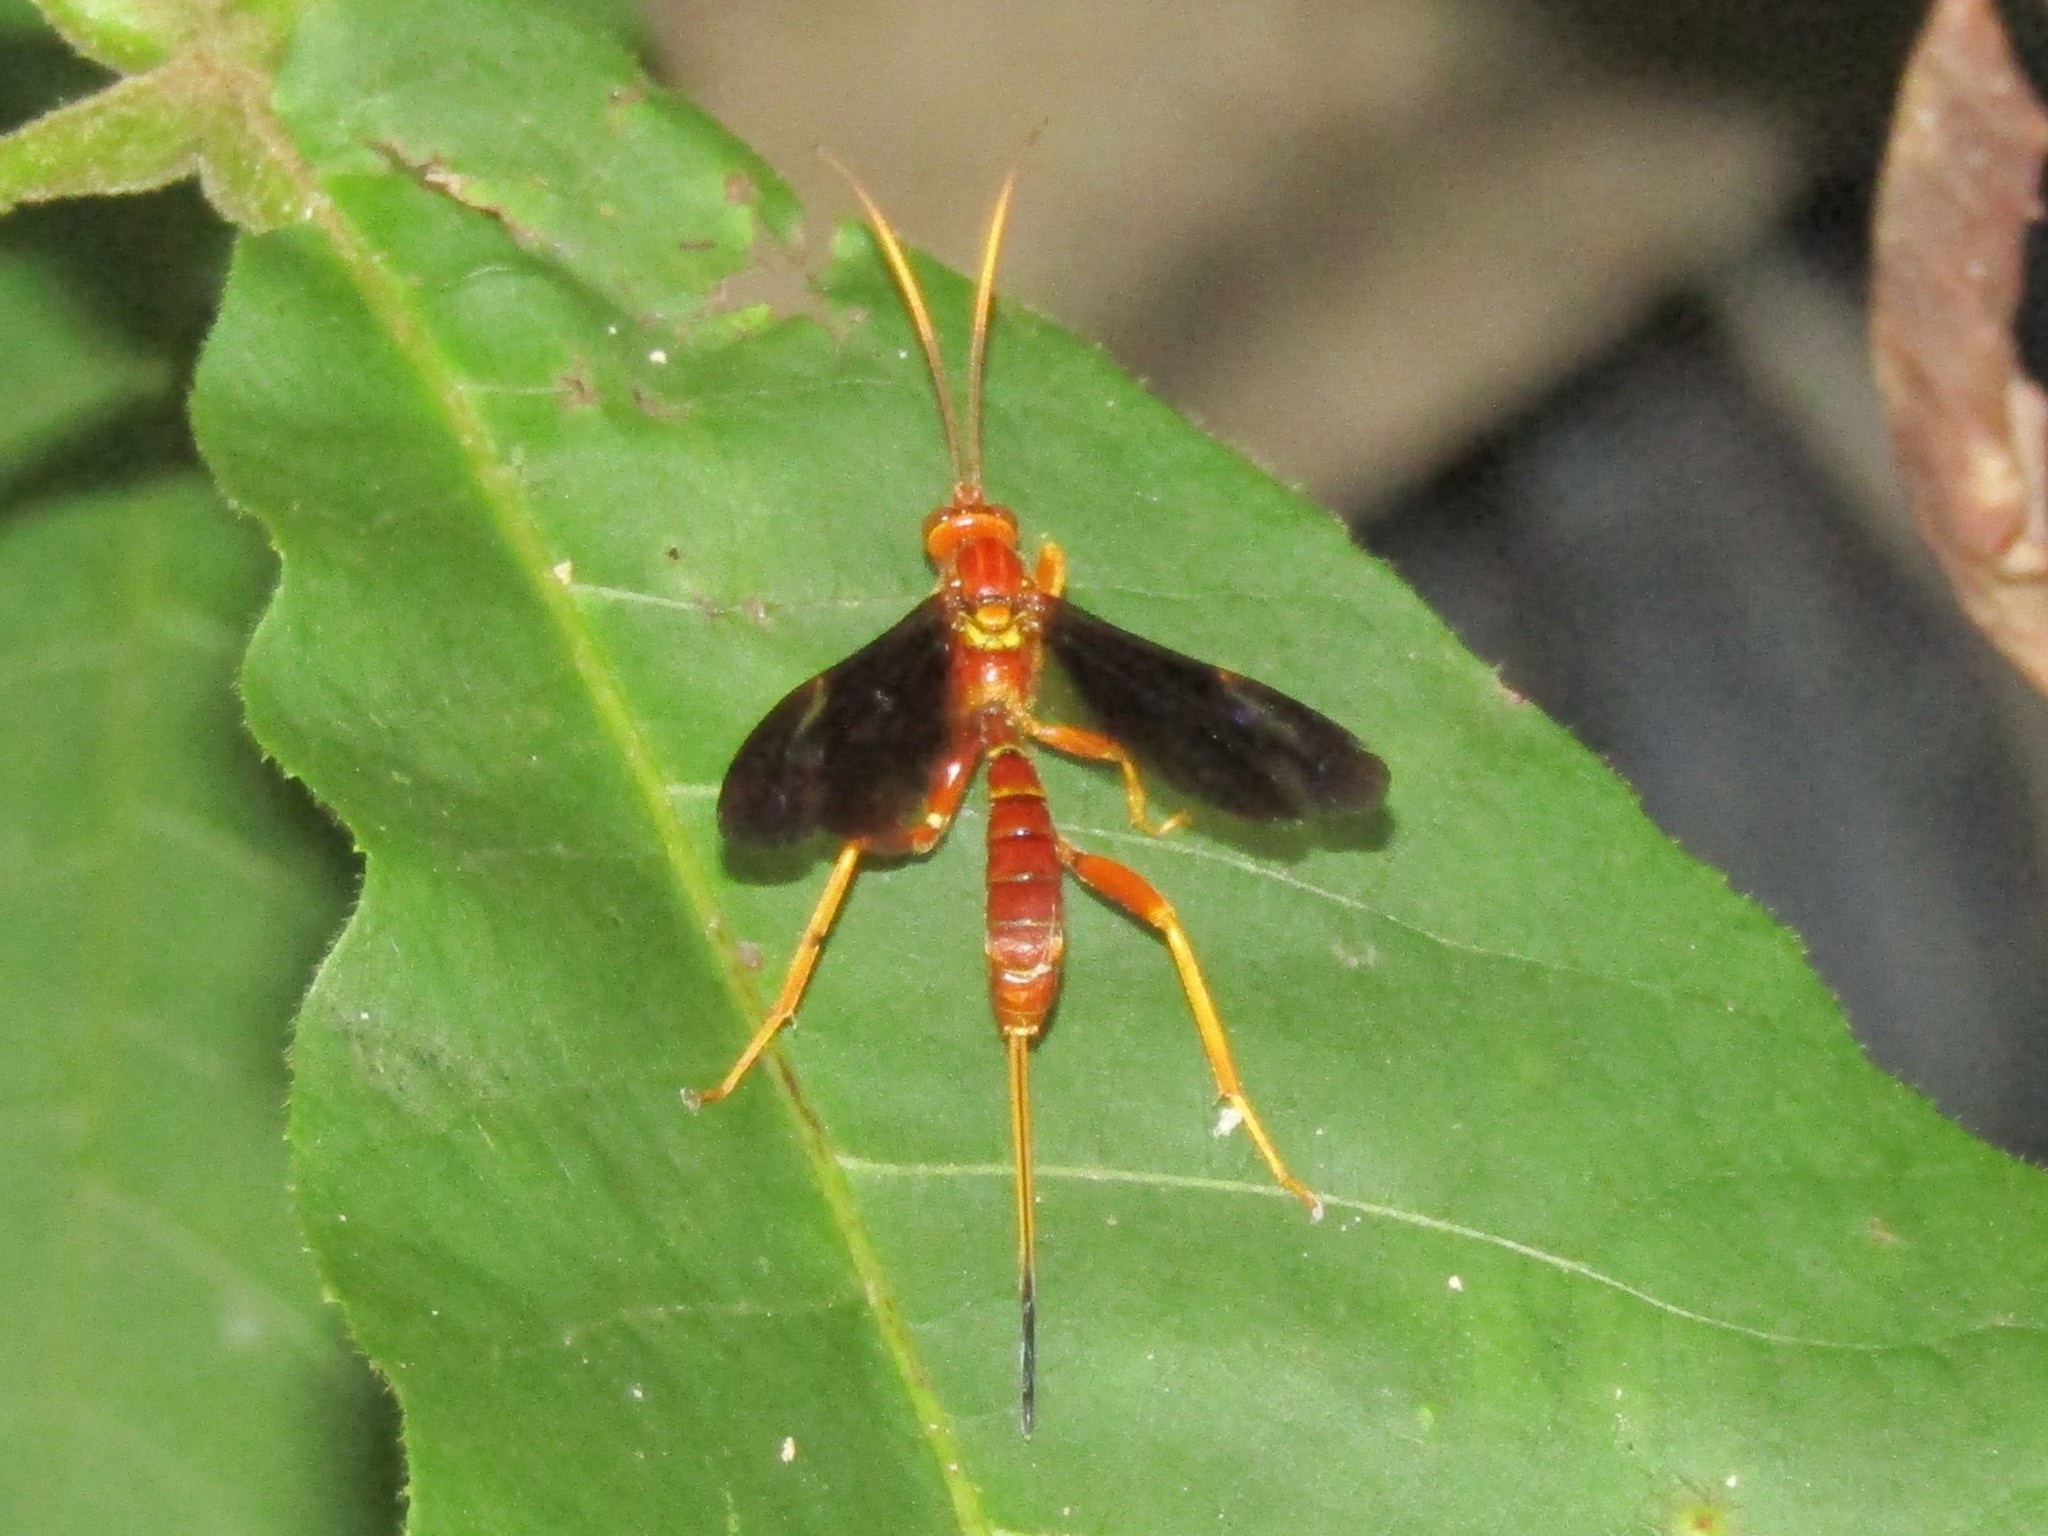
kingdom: Animalia
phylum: Arthropoda
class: Insecta
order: Hymenoptera
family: Ichneumonidae
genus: Labena
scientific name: Labena grallator
